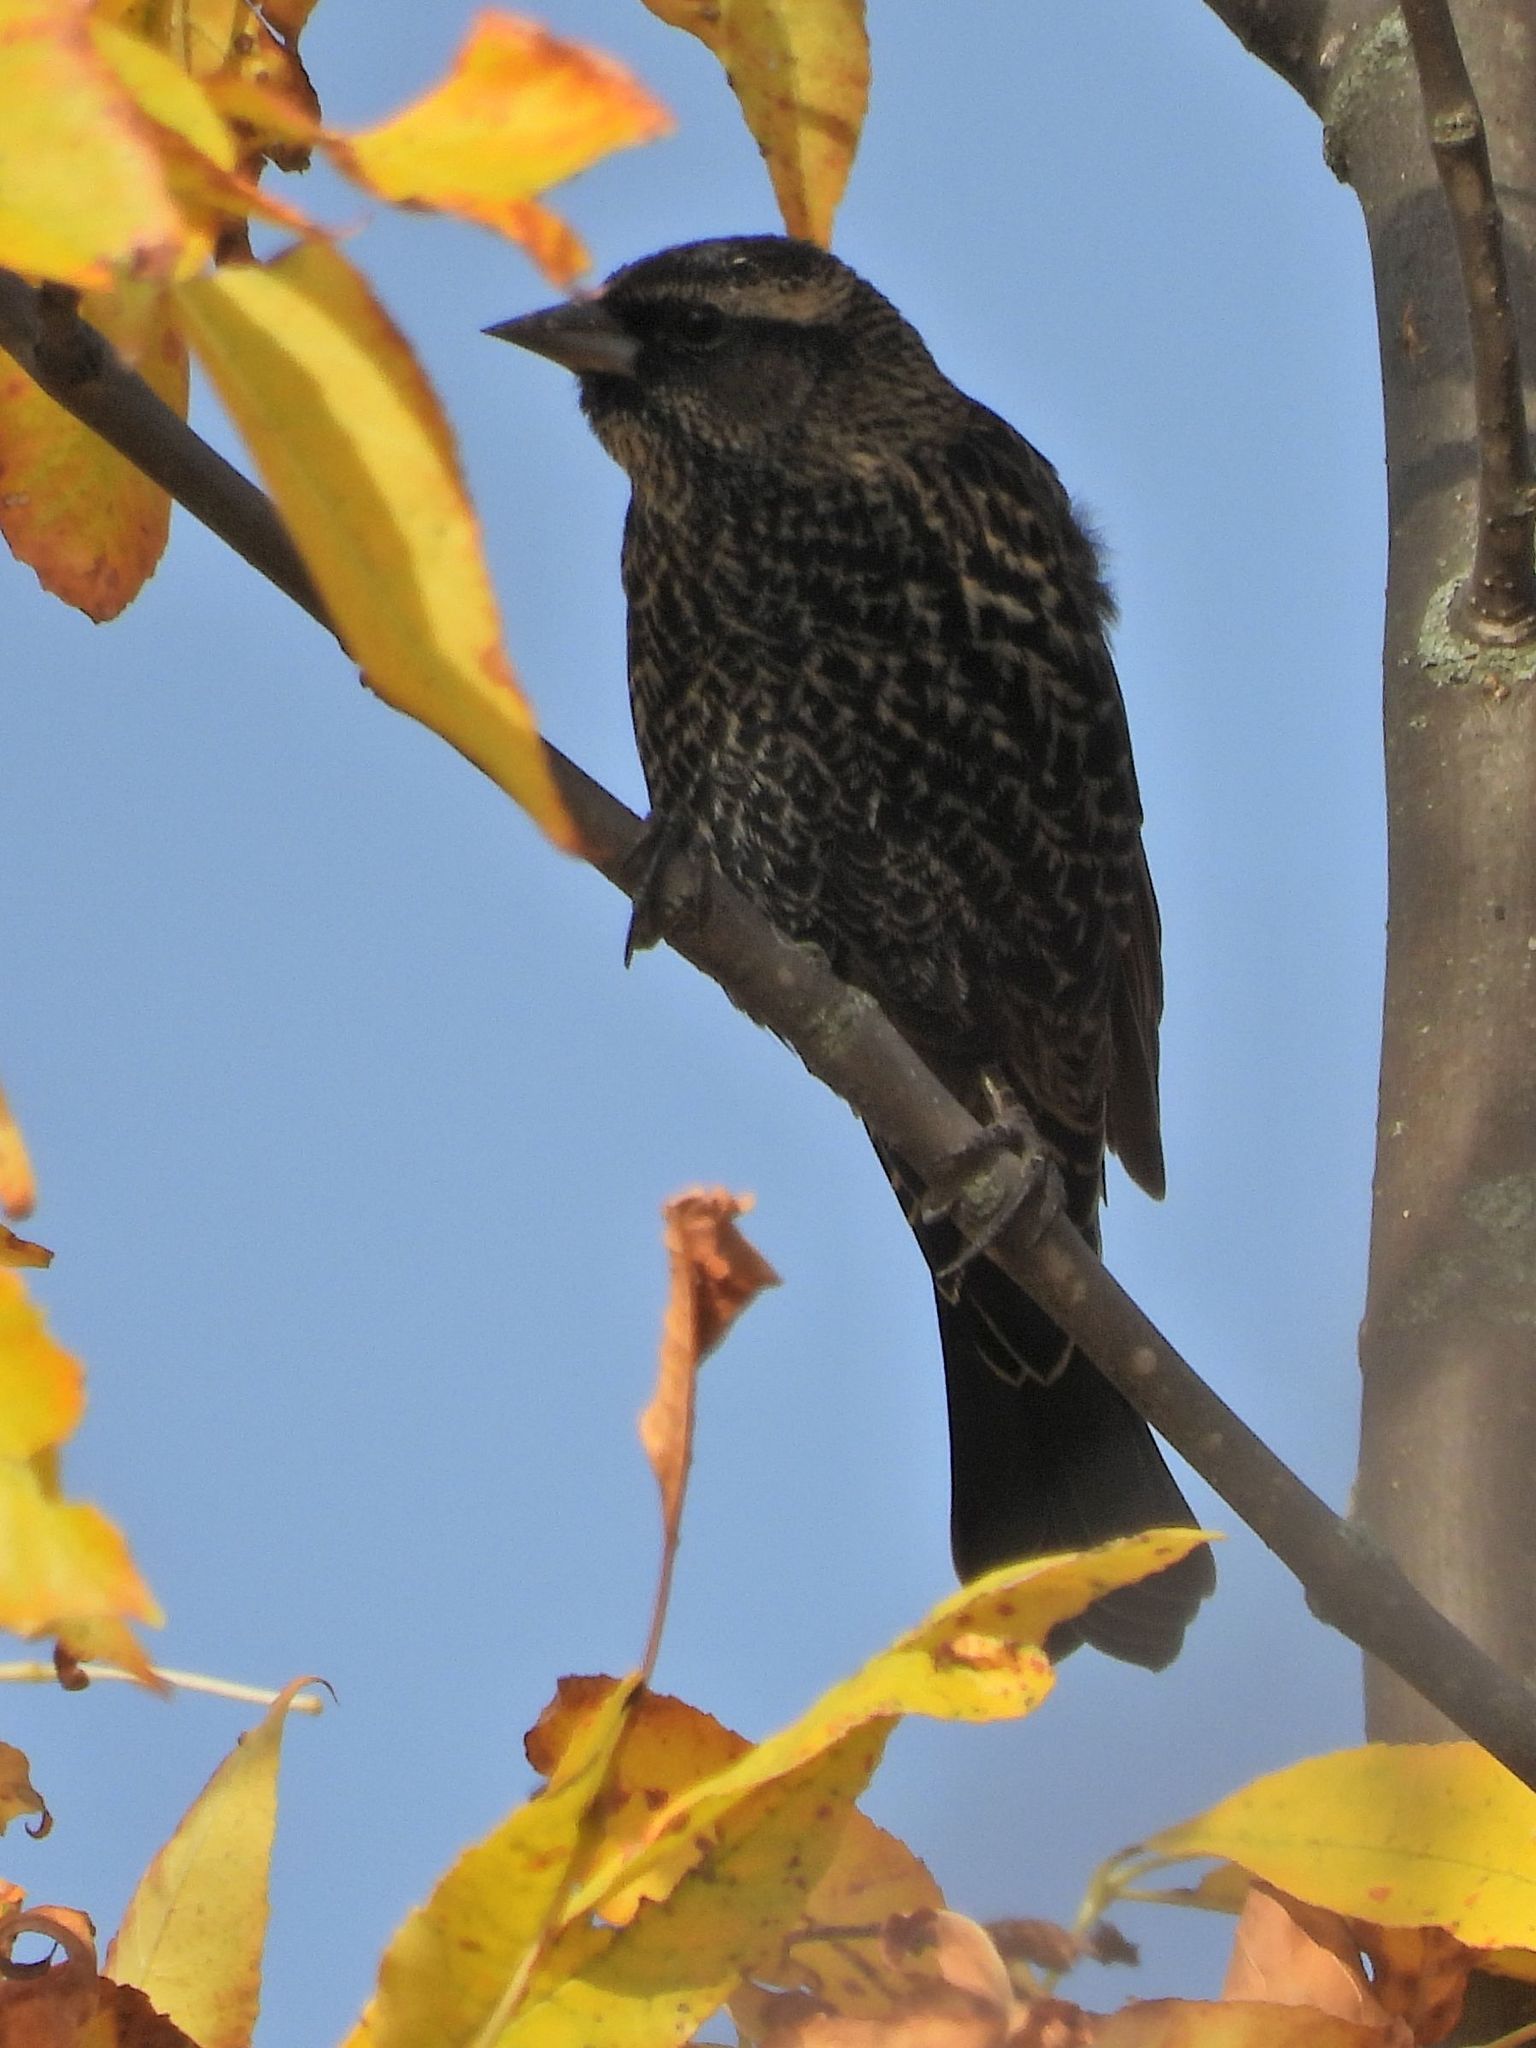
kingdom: Animalia
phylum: Chordata
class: Aves
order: Passeriformes
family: Icteridae
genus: Agelaius
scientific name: Agelaius phoeniceus
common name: Red-winged blackbird
